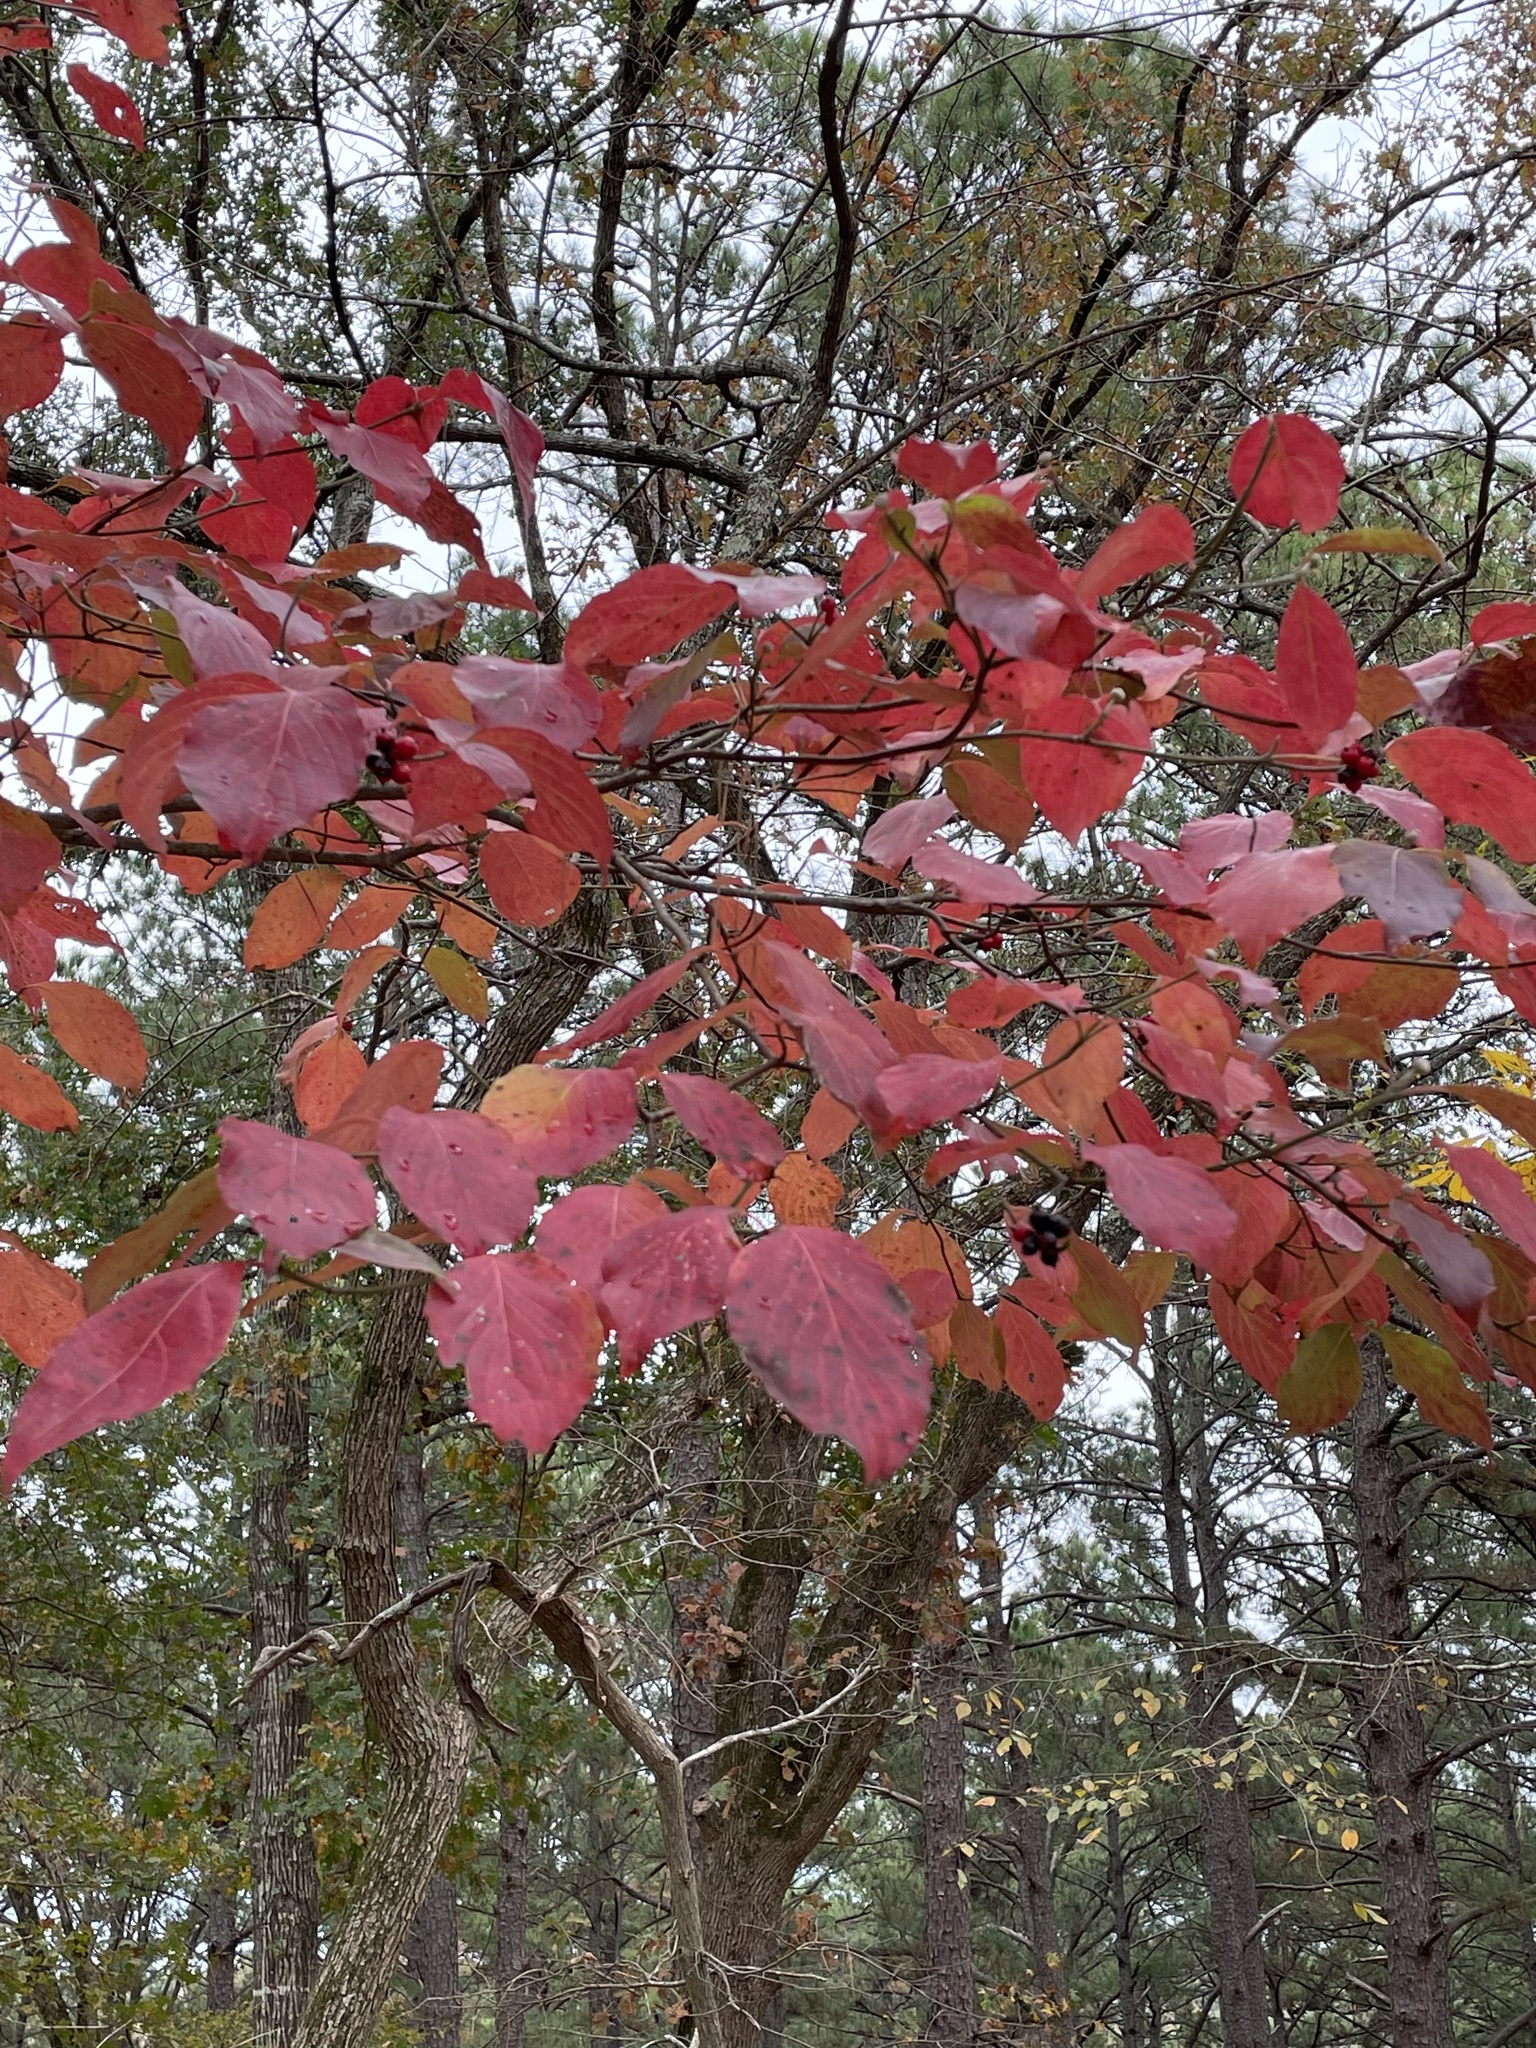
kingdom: Plantae
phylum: Tracheophyta
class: Magnoliopsida
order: Cornales
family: Cornaceae
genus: Cornus
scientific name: Cornus florida
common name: Flowering dogwood
